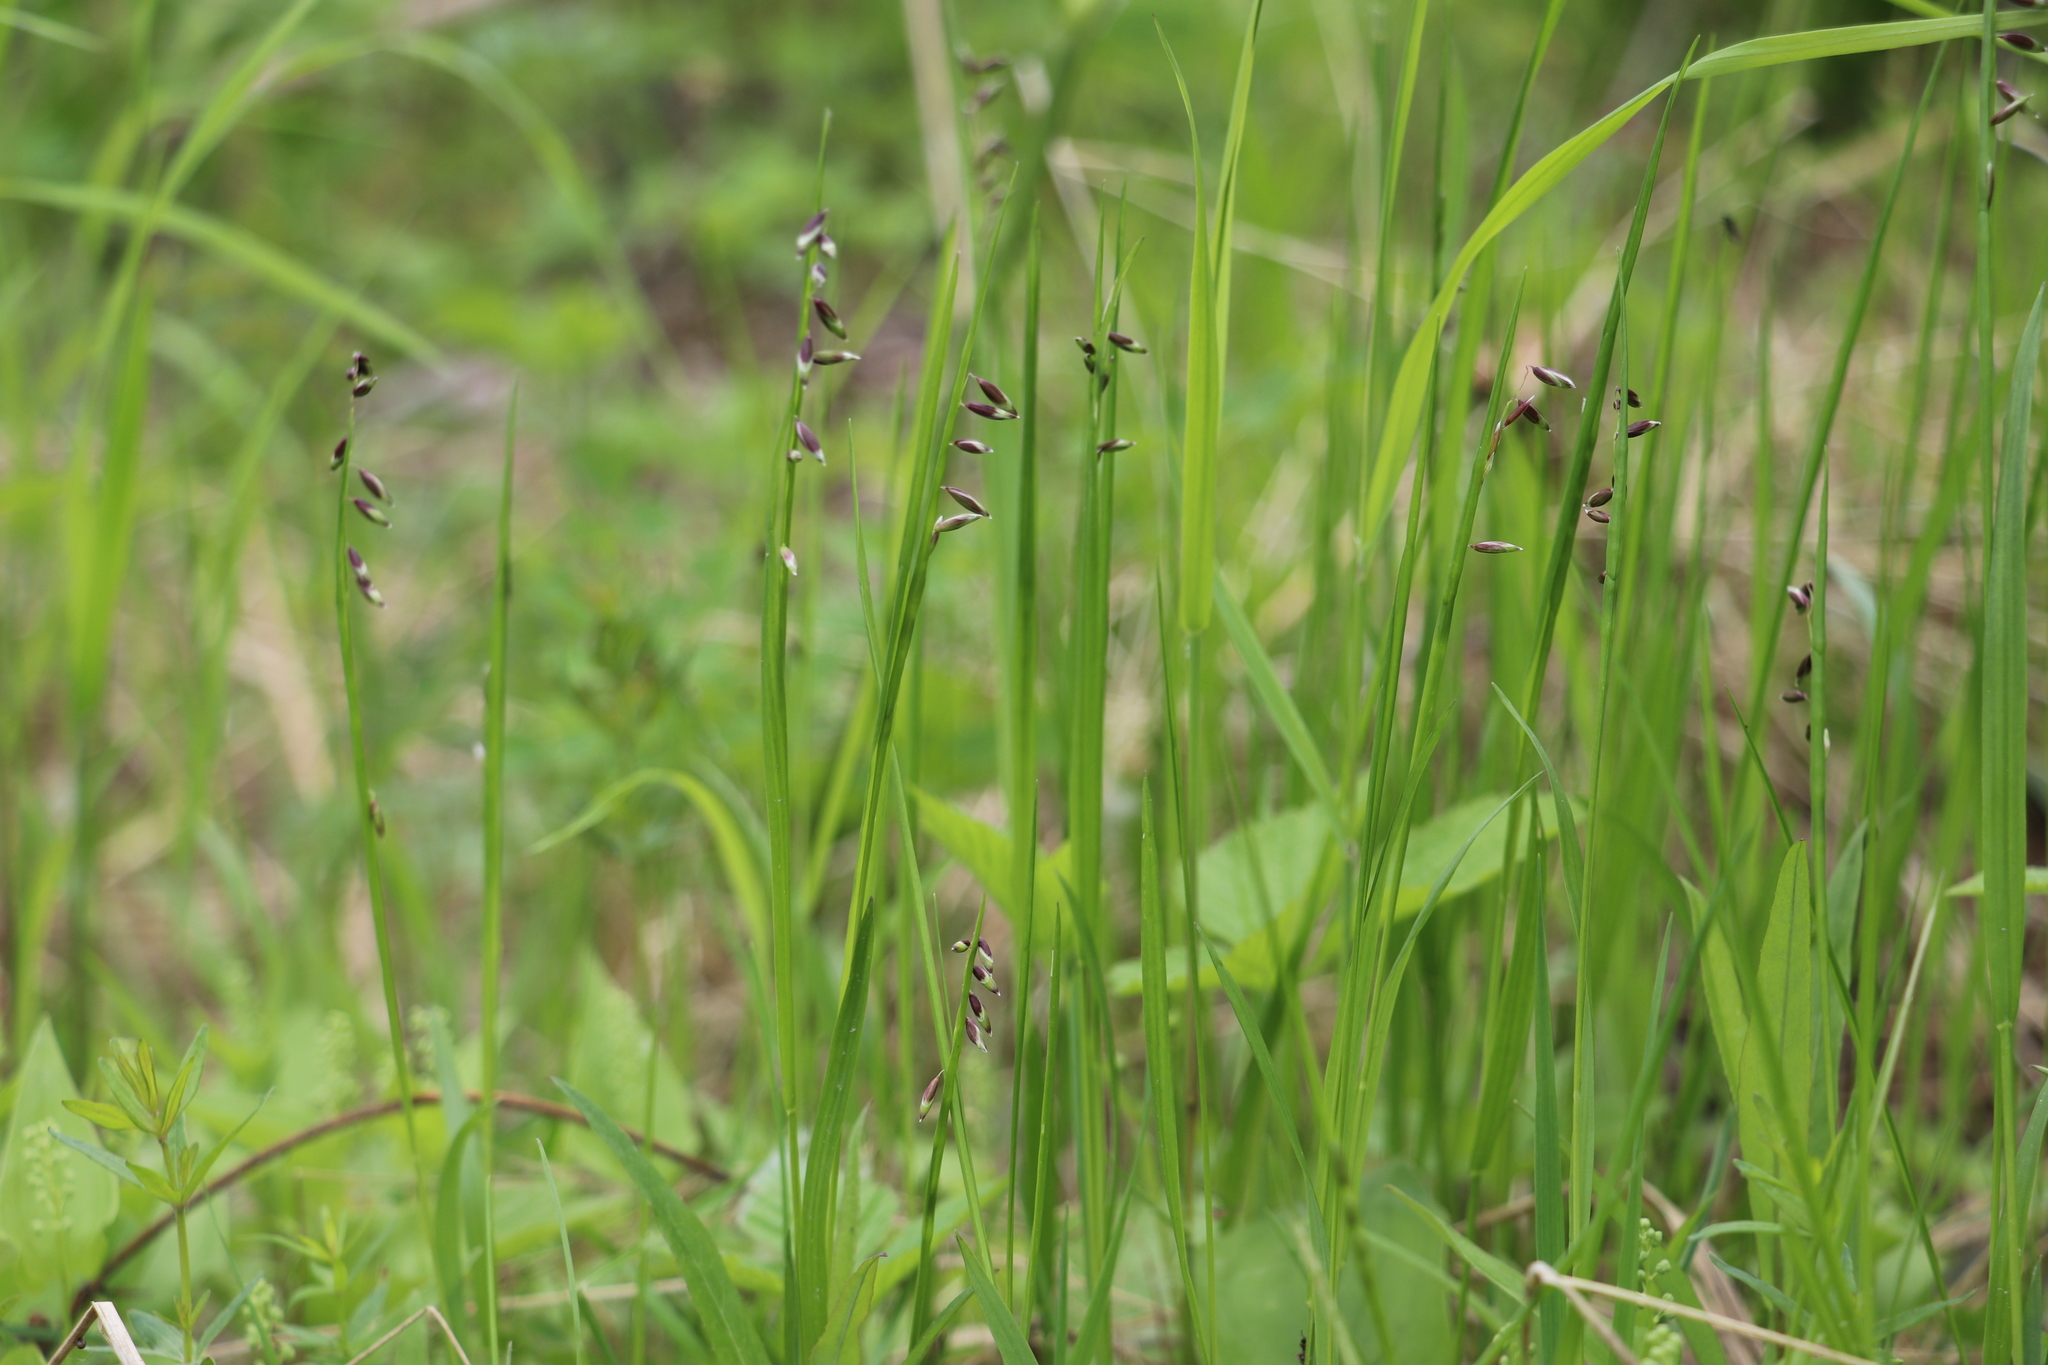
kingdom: Plantae
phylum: Tracheophyta
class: Liliopsida
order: Poales
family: Poaceae
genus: Melica
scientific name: Melica nutans
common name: Mountain melick
